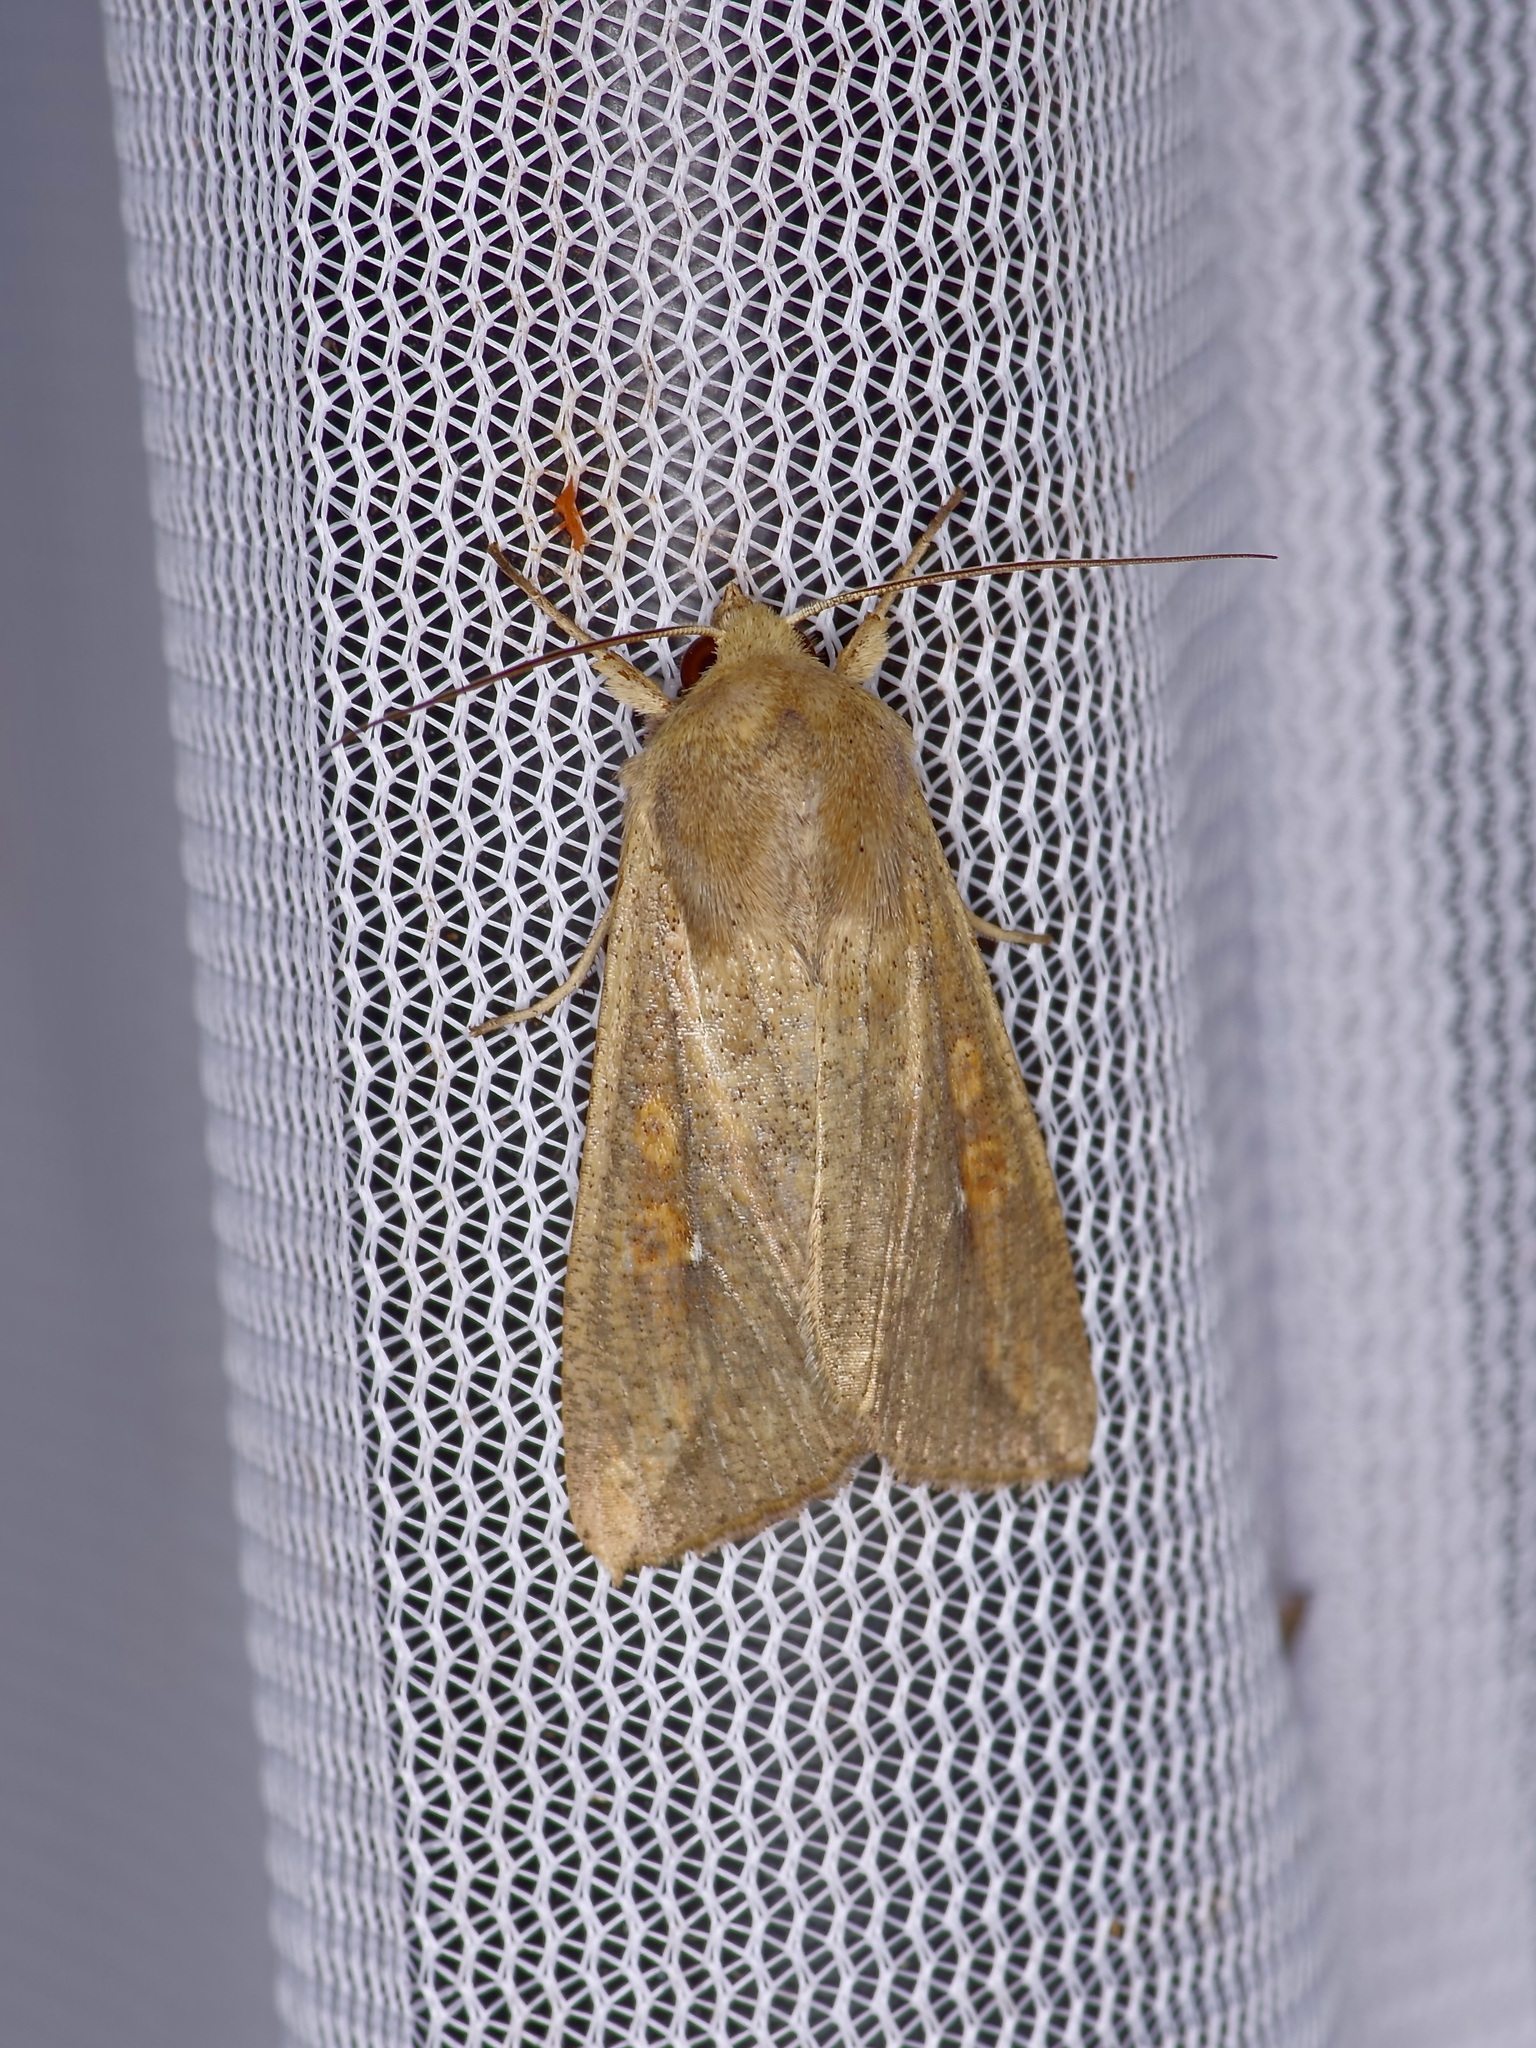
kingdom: Animalia
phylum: Arthropoda
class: Insecta
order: Lepidoptera
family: Noctuidae
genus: Mythimna
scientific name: Mythimna unipuncta
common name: White-speck
